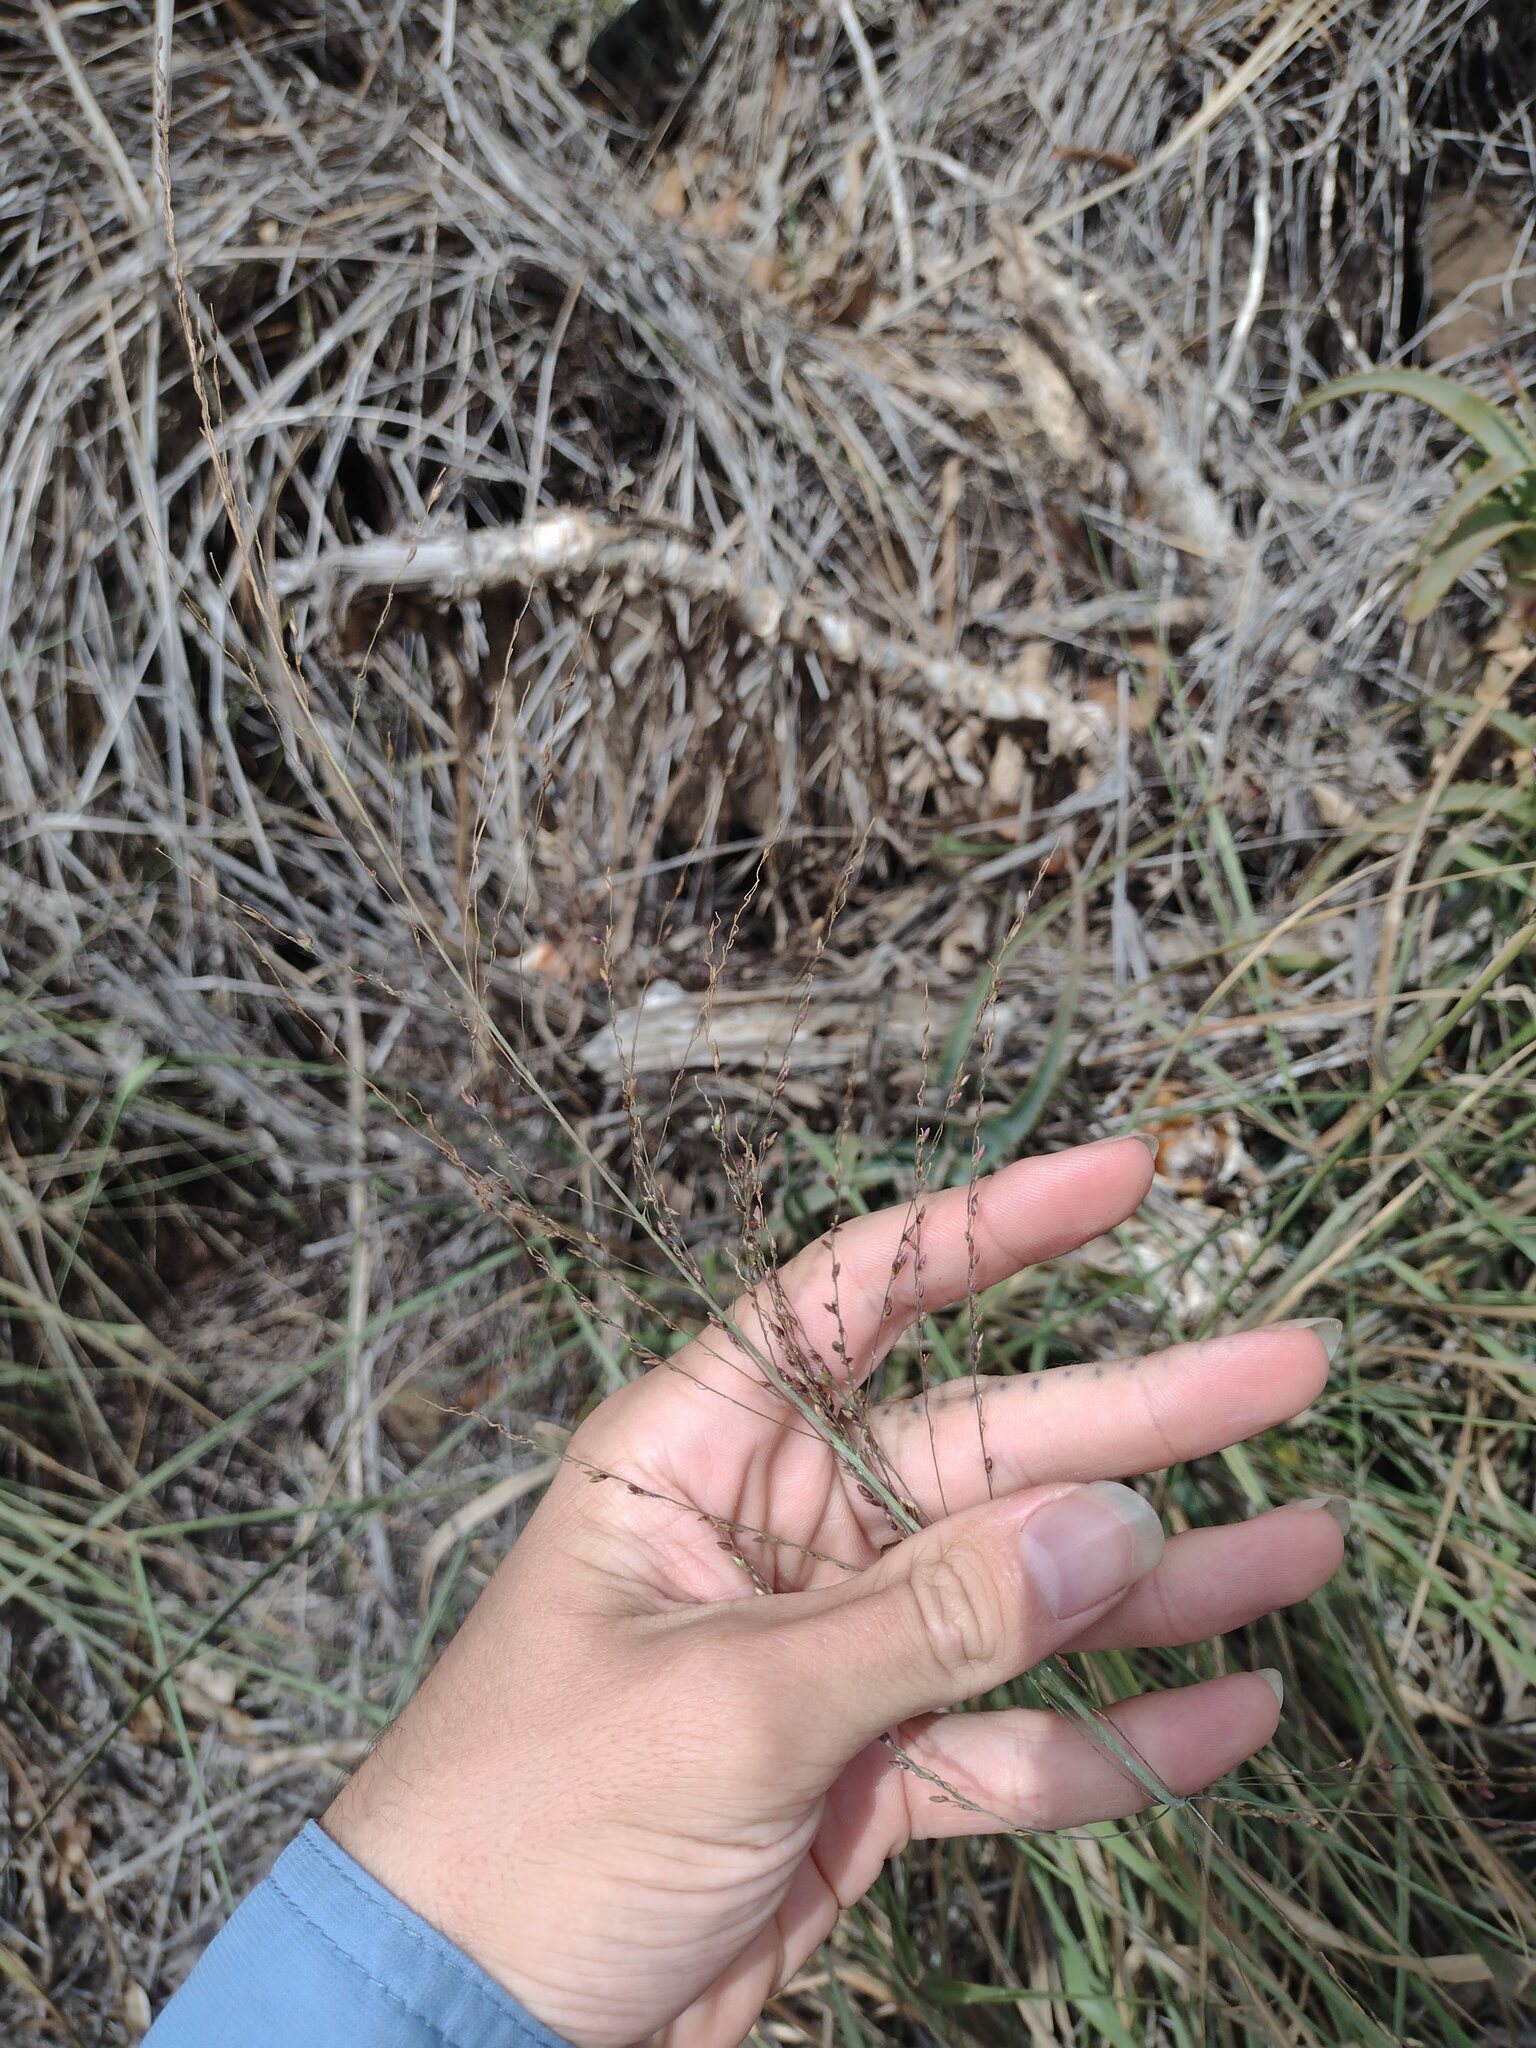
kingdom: Plantae
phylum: Tracheophyta
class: Liliopsida
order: Poales
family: Poaceae
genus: Megathyrsus
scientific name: Megathyrsus maximus
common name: Guineagrass
